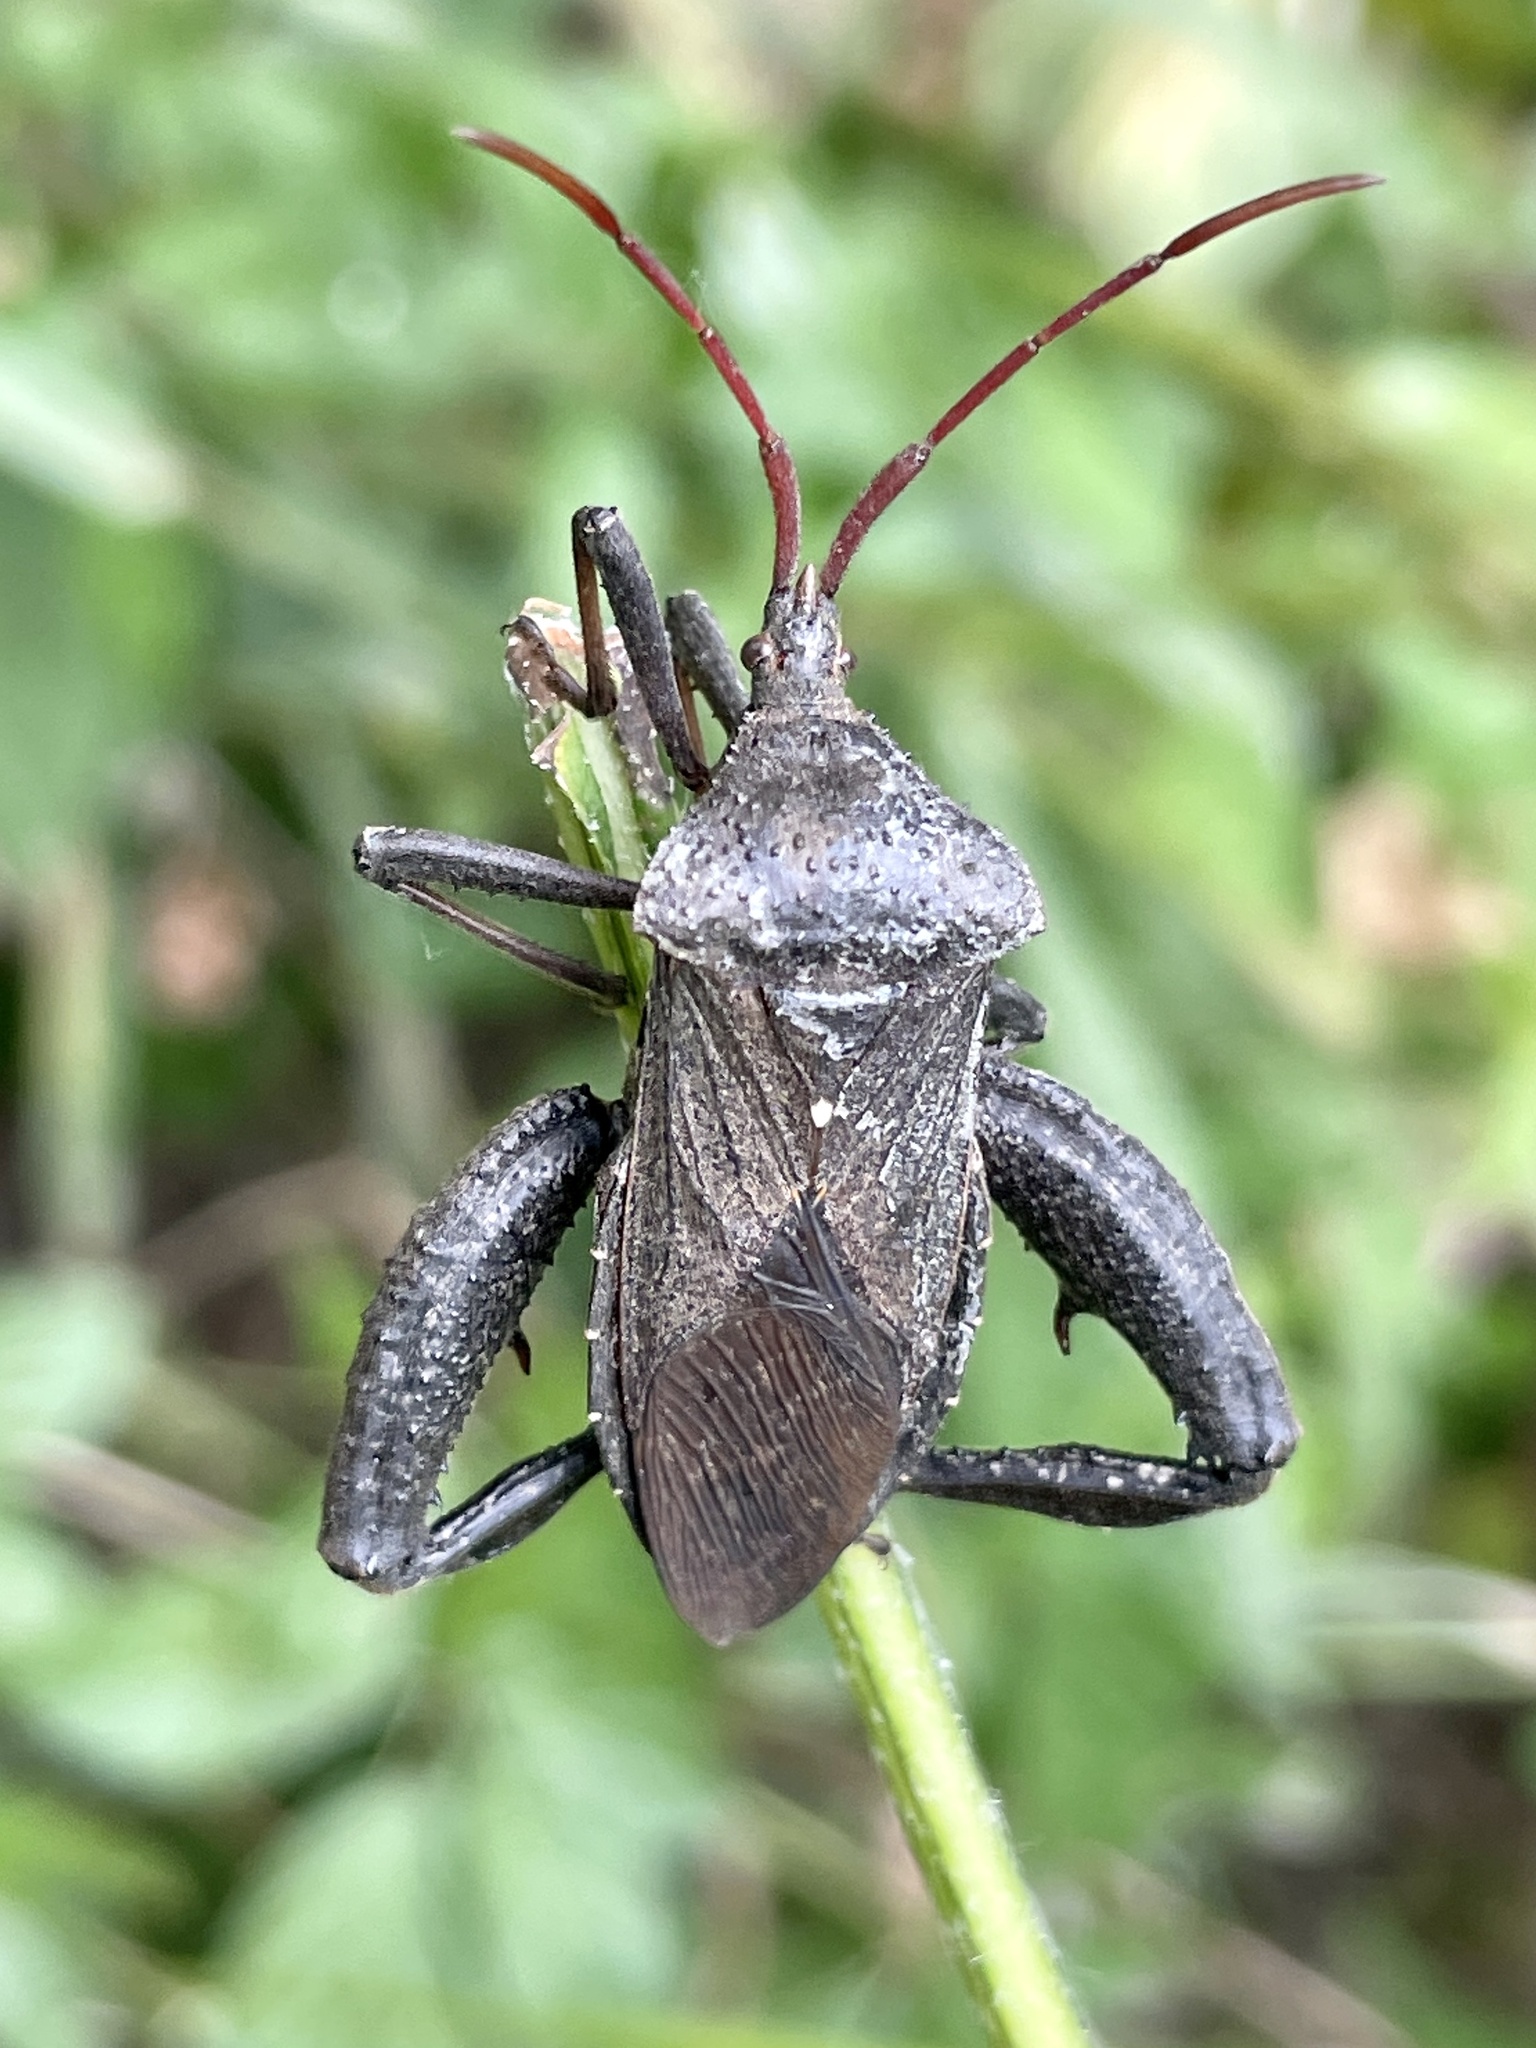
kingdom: Animalia
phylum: Arthropoda
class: Insecta
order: Hemiptera
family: Coreidae
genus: Acanthocephala
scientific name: Acanthocephala femorata
